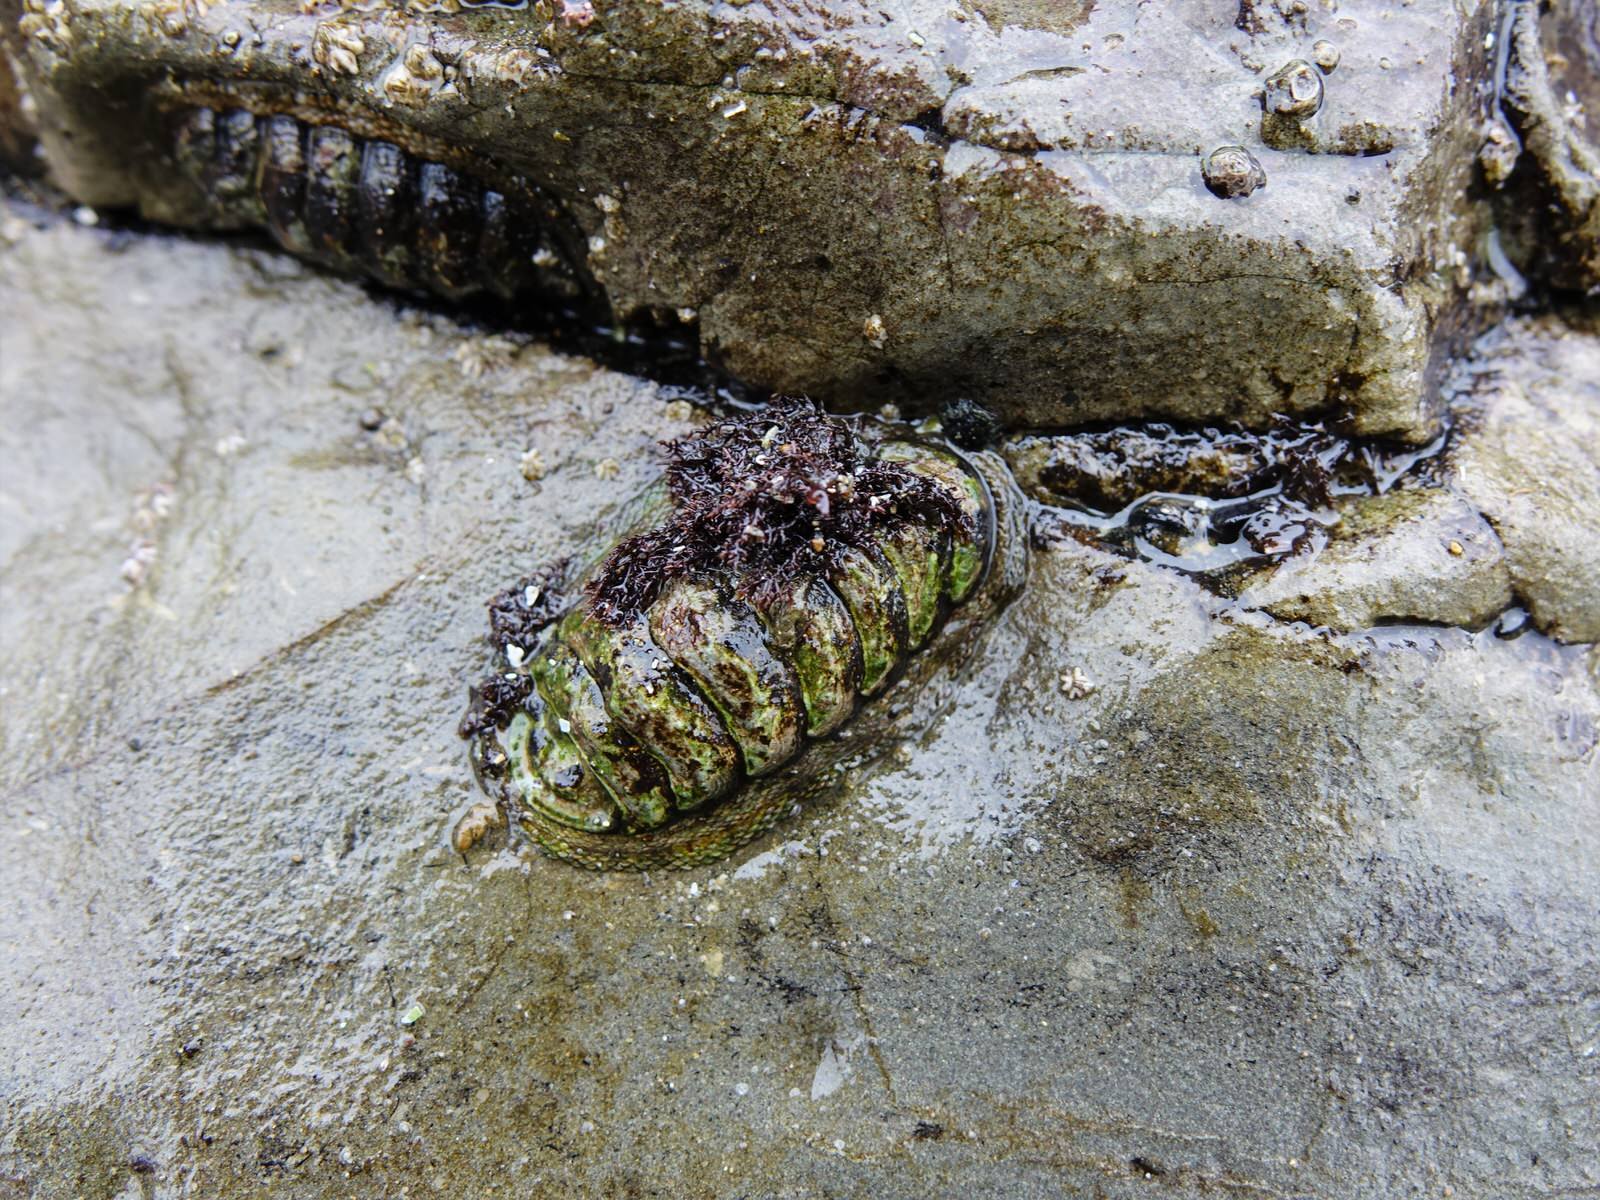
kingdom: Animalia
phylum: Mollusca
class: Polyplacophora
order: Chitonida
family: Chitonidae
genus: Sypharochiton
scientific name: Sypharochiton pelliserpentis
